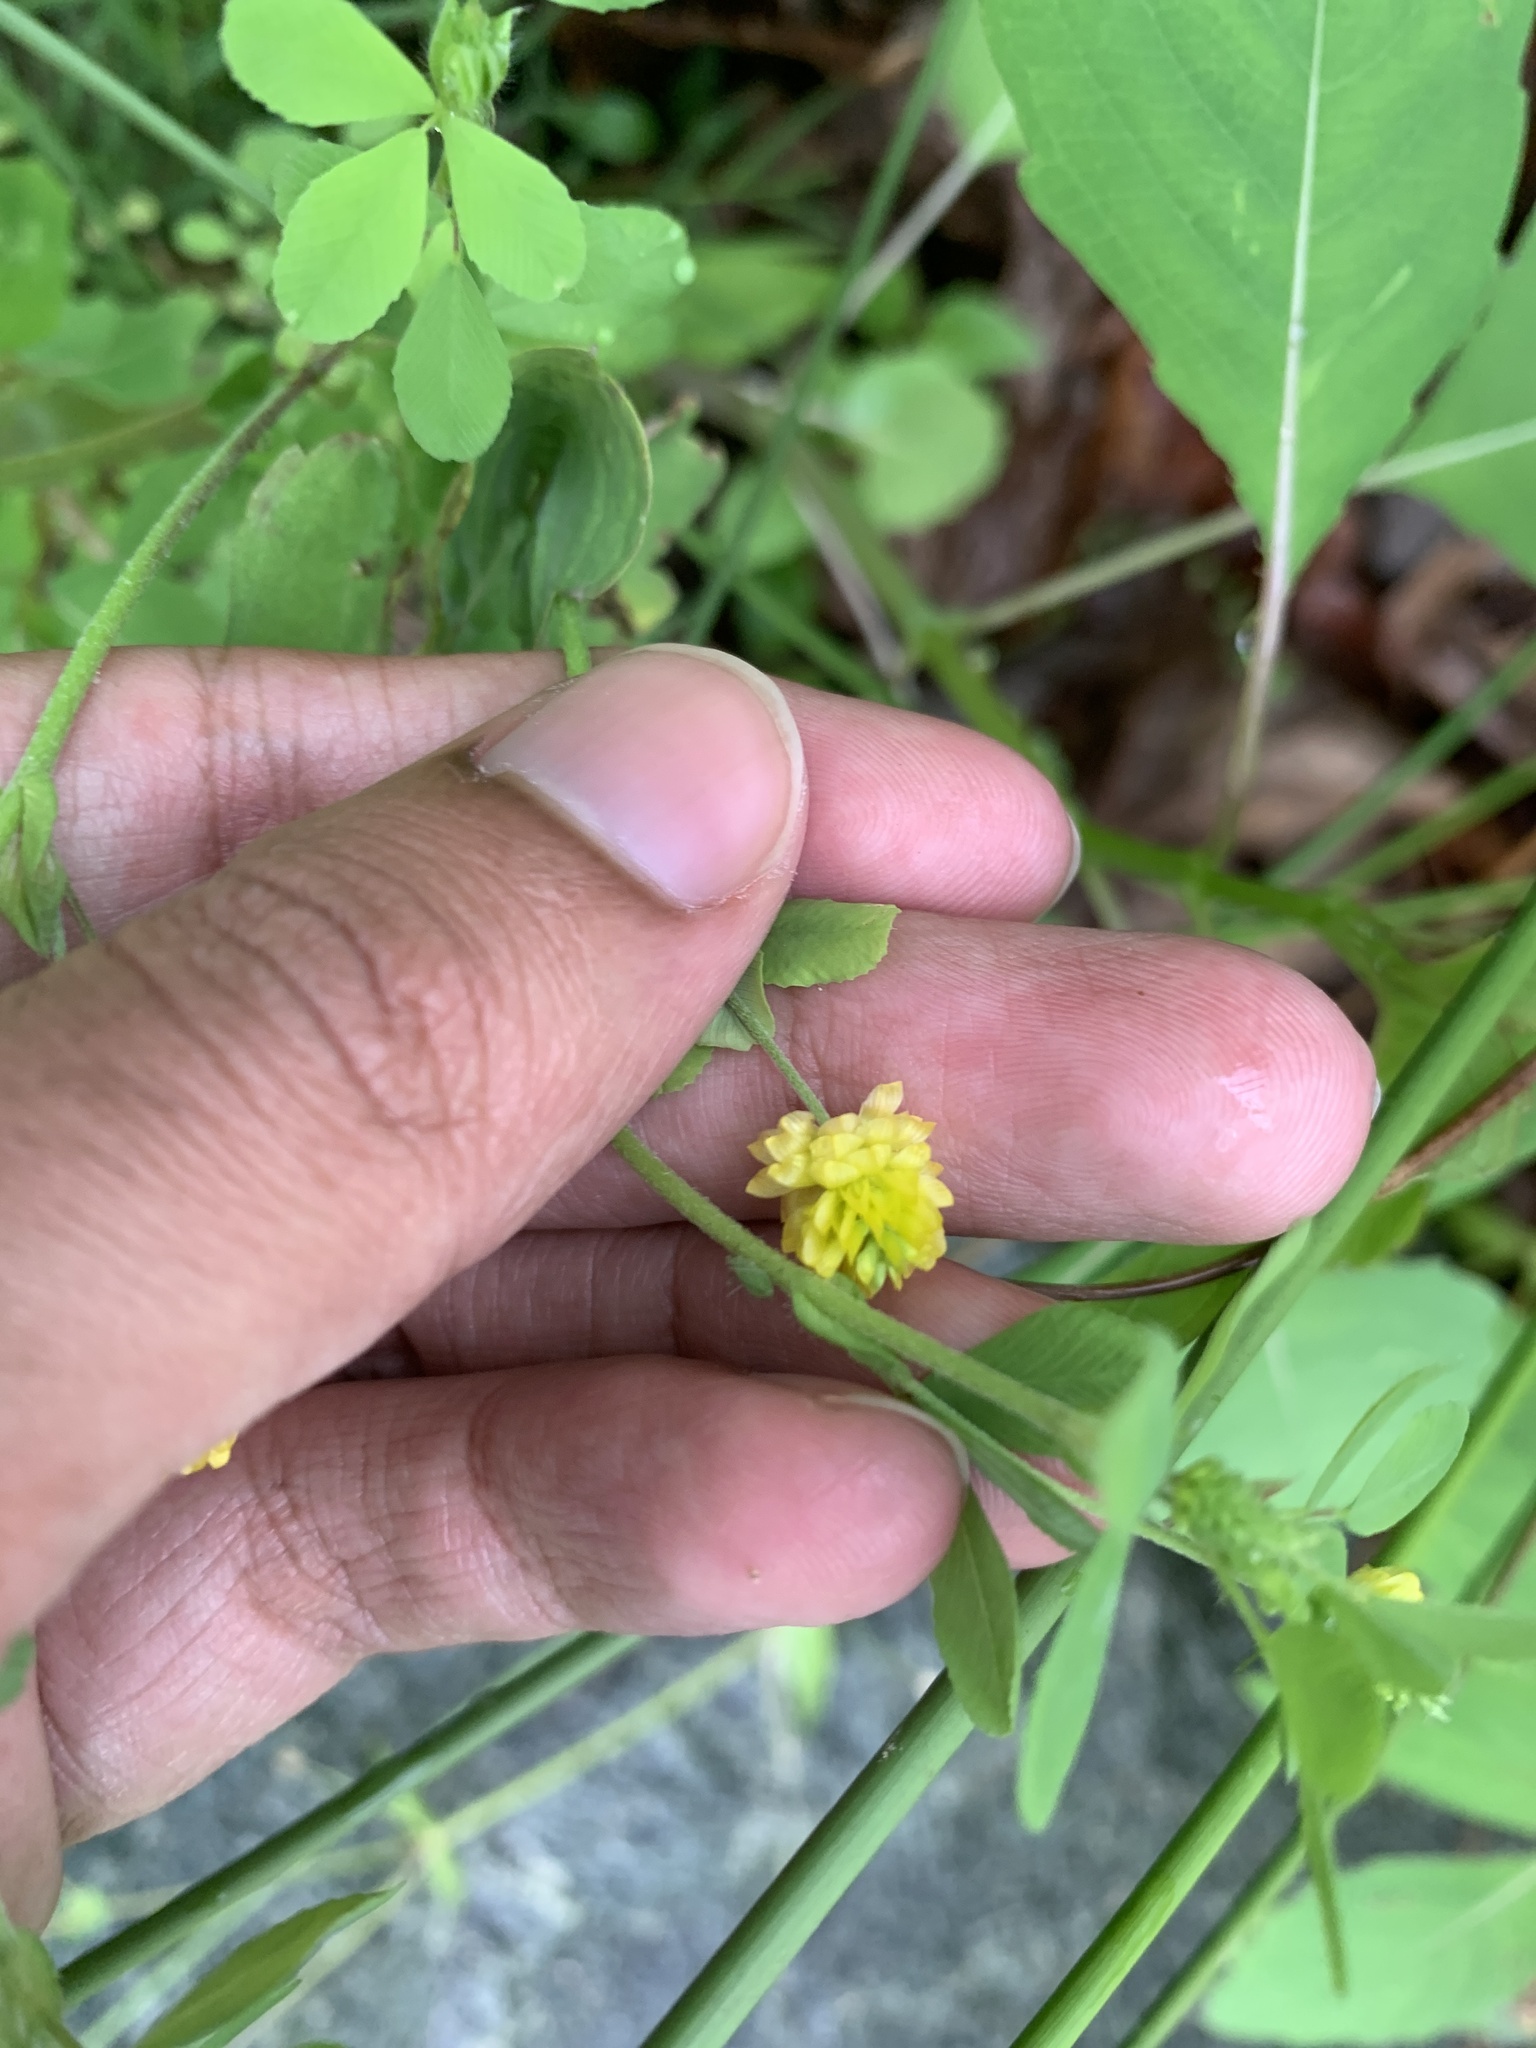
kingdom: Plantae
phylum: Tracheophyta
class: Magnoliopsida
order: Fabales
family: Fabaceae
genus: Trifolium
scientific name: Trifolium campestre
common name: Field clover
